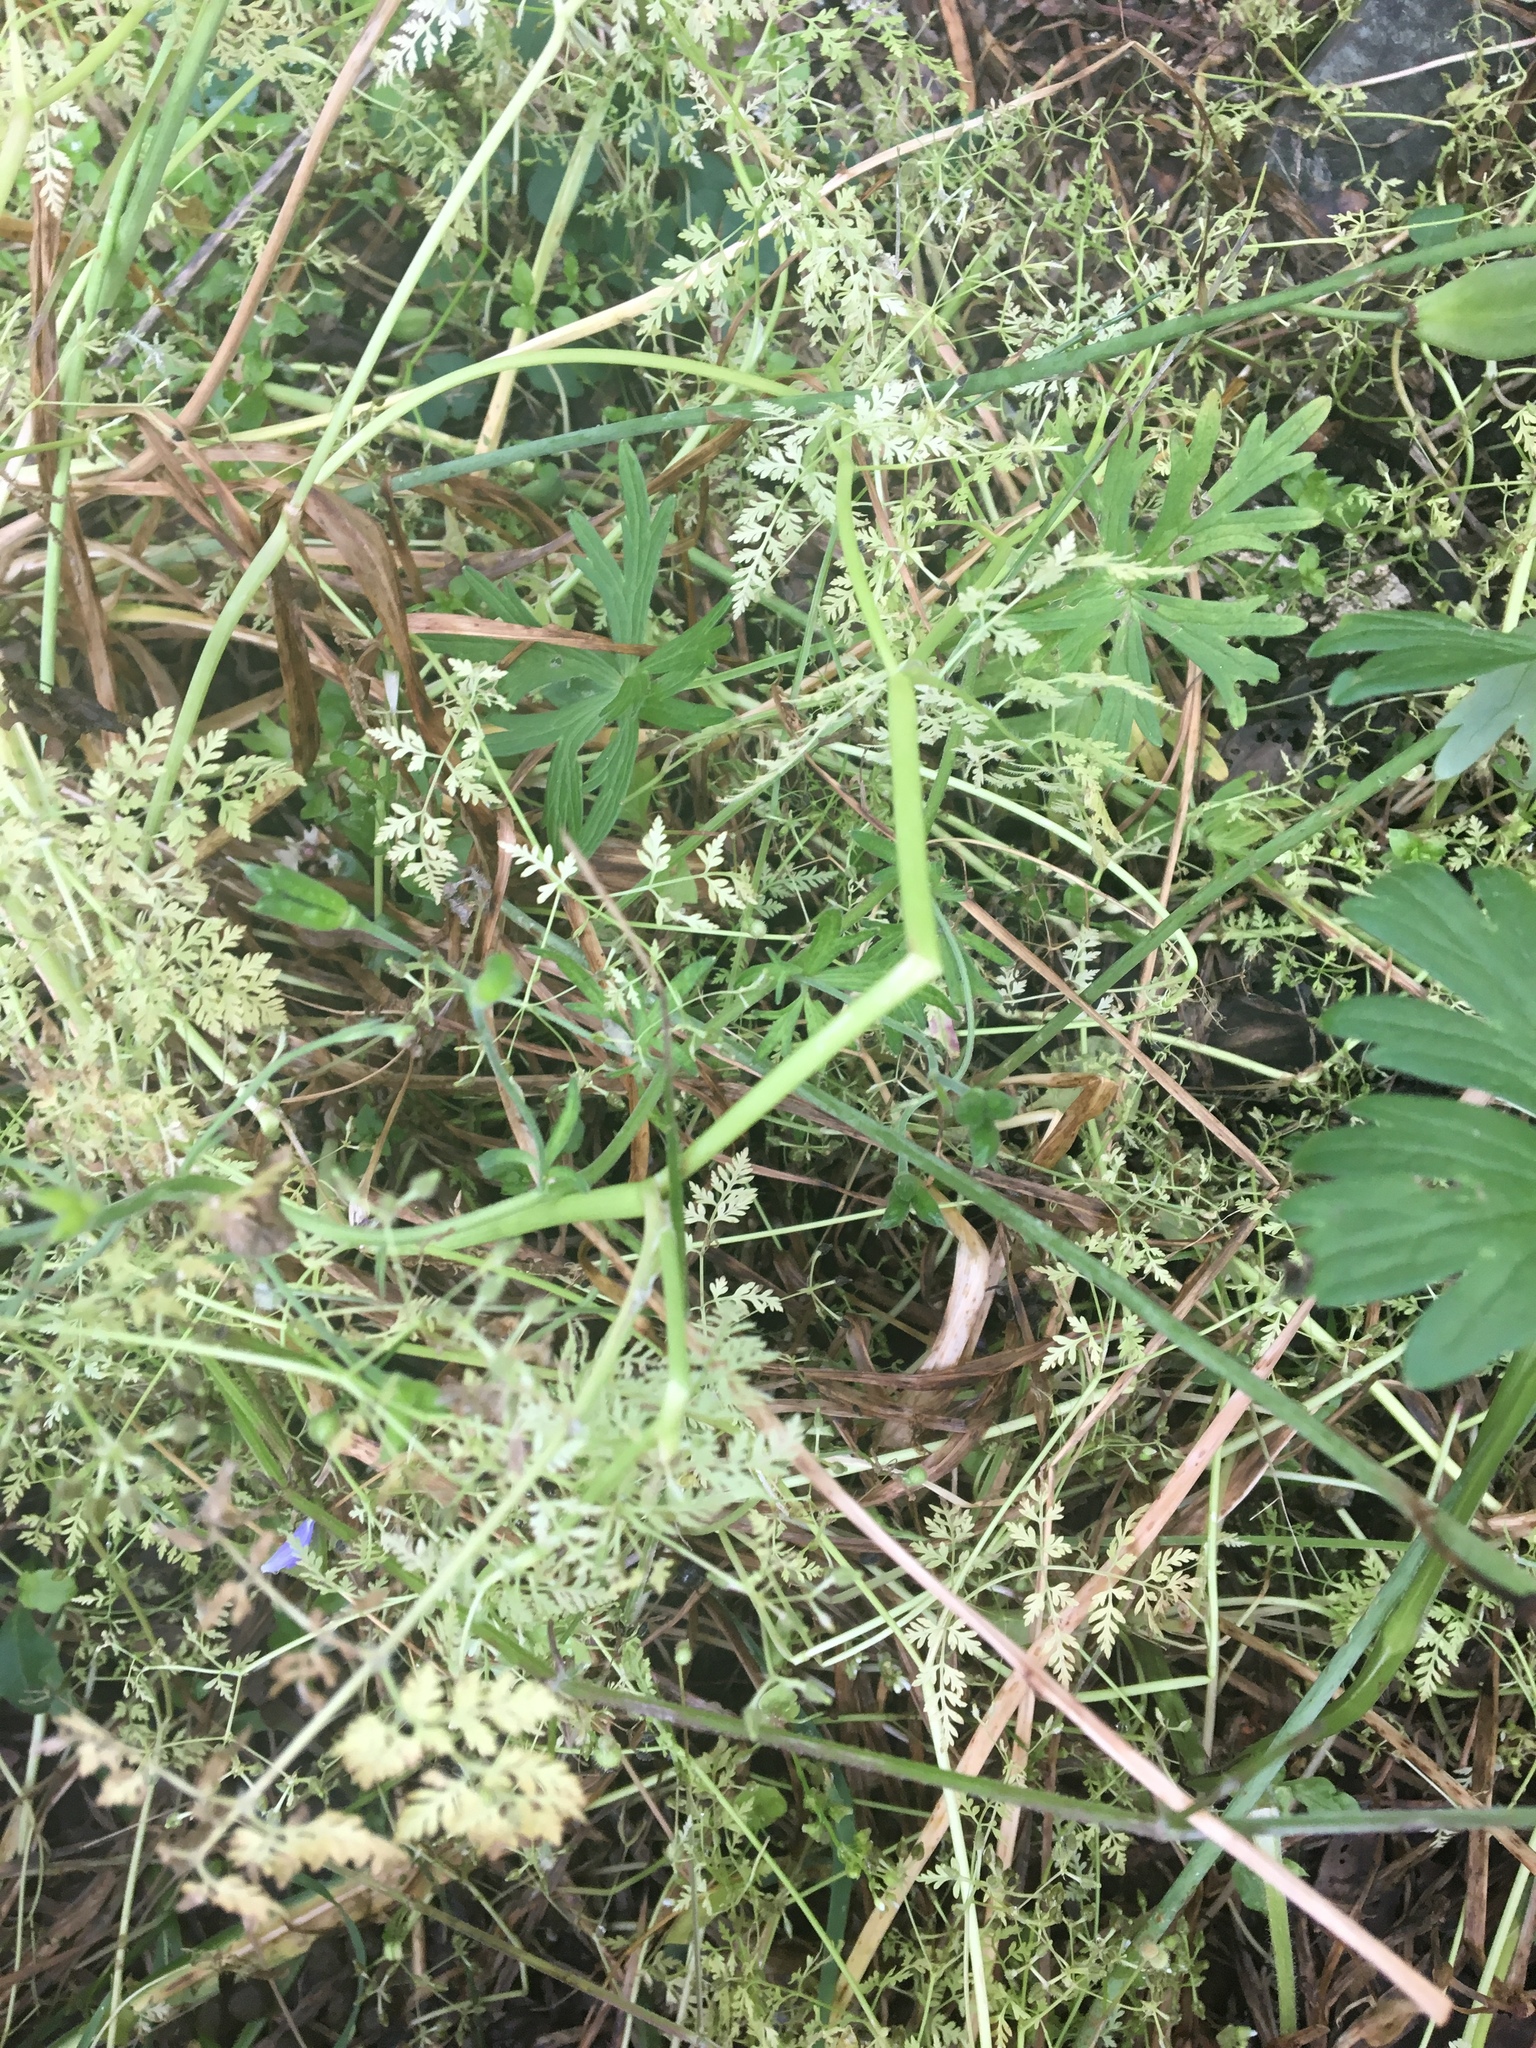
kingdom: Plantae
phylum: Tracheophyta
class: Magnoliopsida
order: Ranunculales
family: Ranunculaceae
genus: Delphinium
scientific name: Delphinium menziesii
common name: Menzies's larkspur
